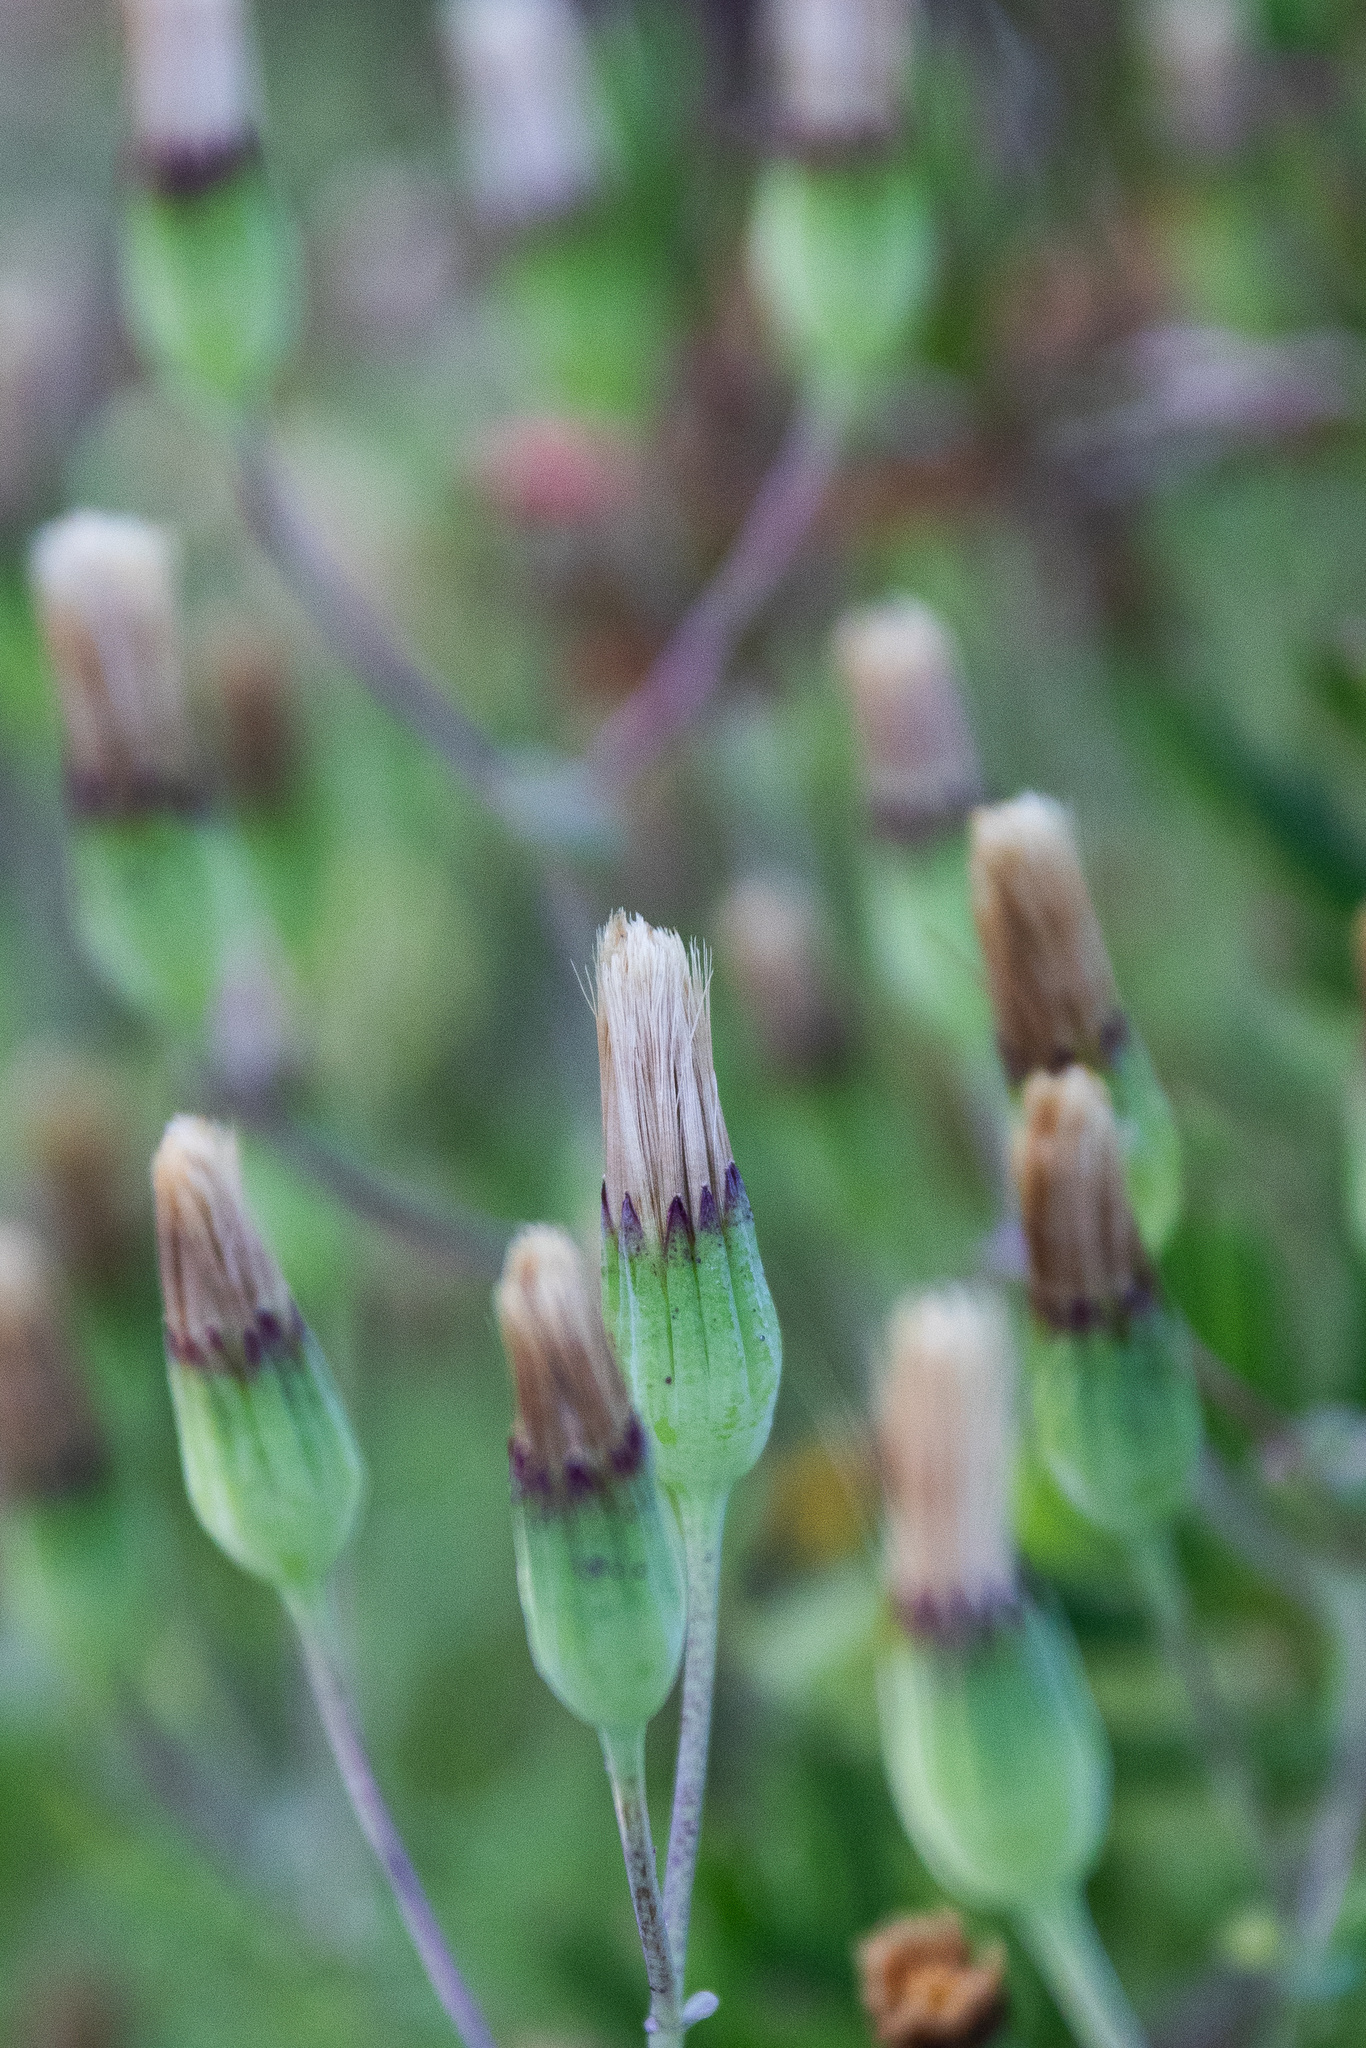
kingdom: Plantae
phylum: Tracheophyta
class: Magnoliopsida
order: Asterales
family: Asteraceae
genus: Othonna
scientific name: Othonna undulosa
